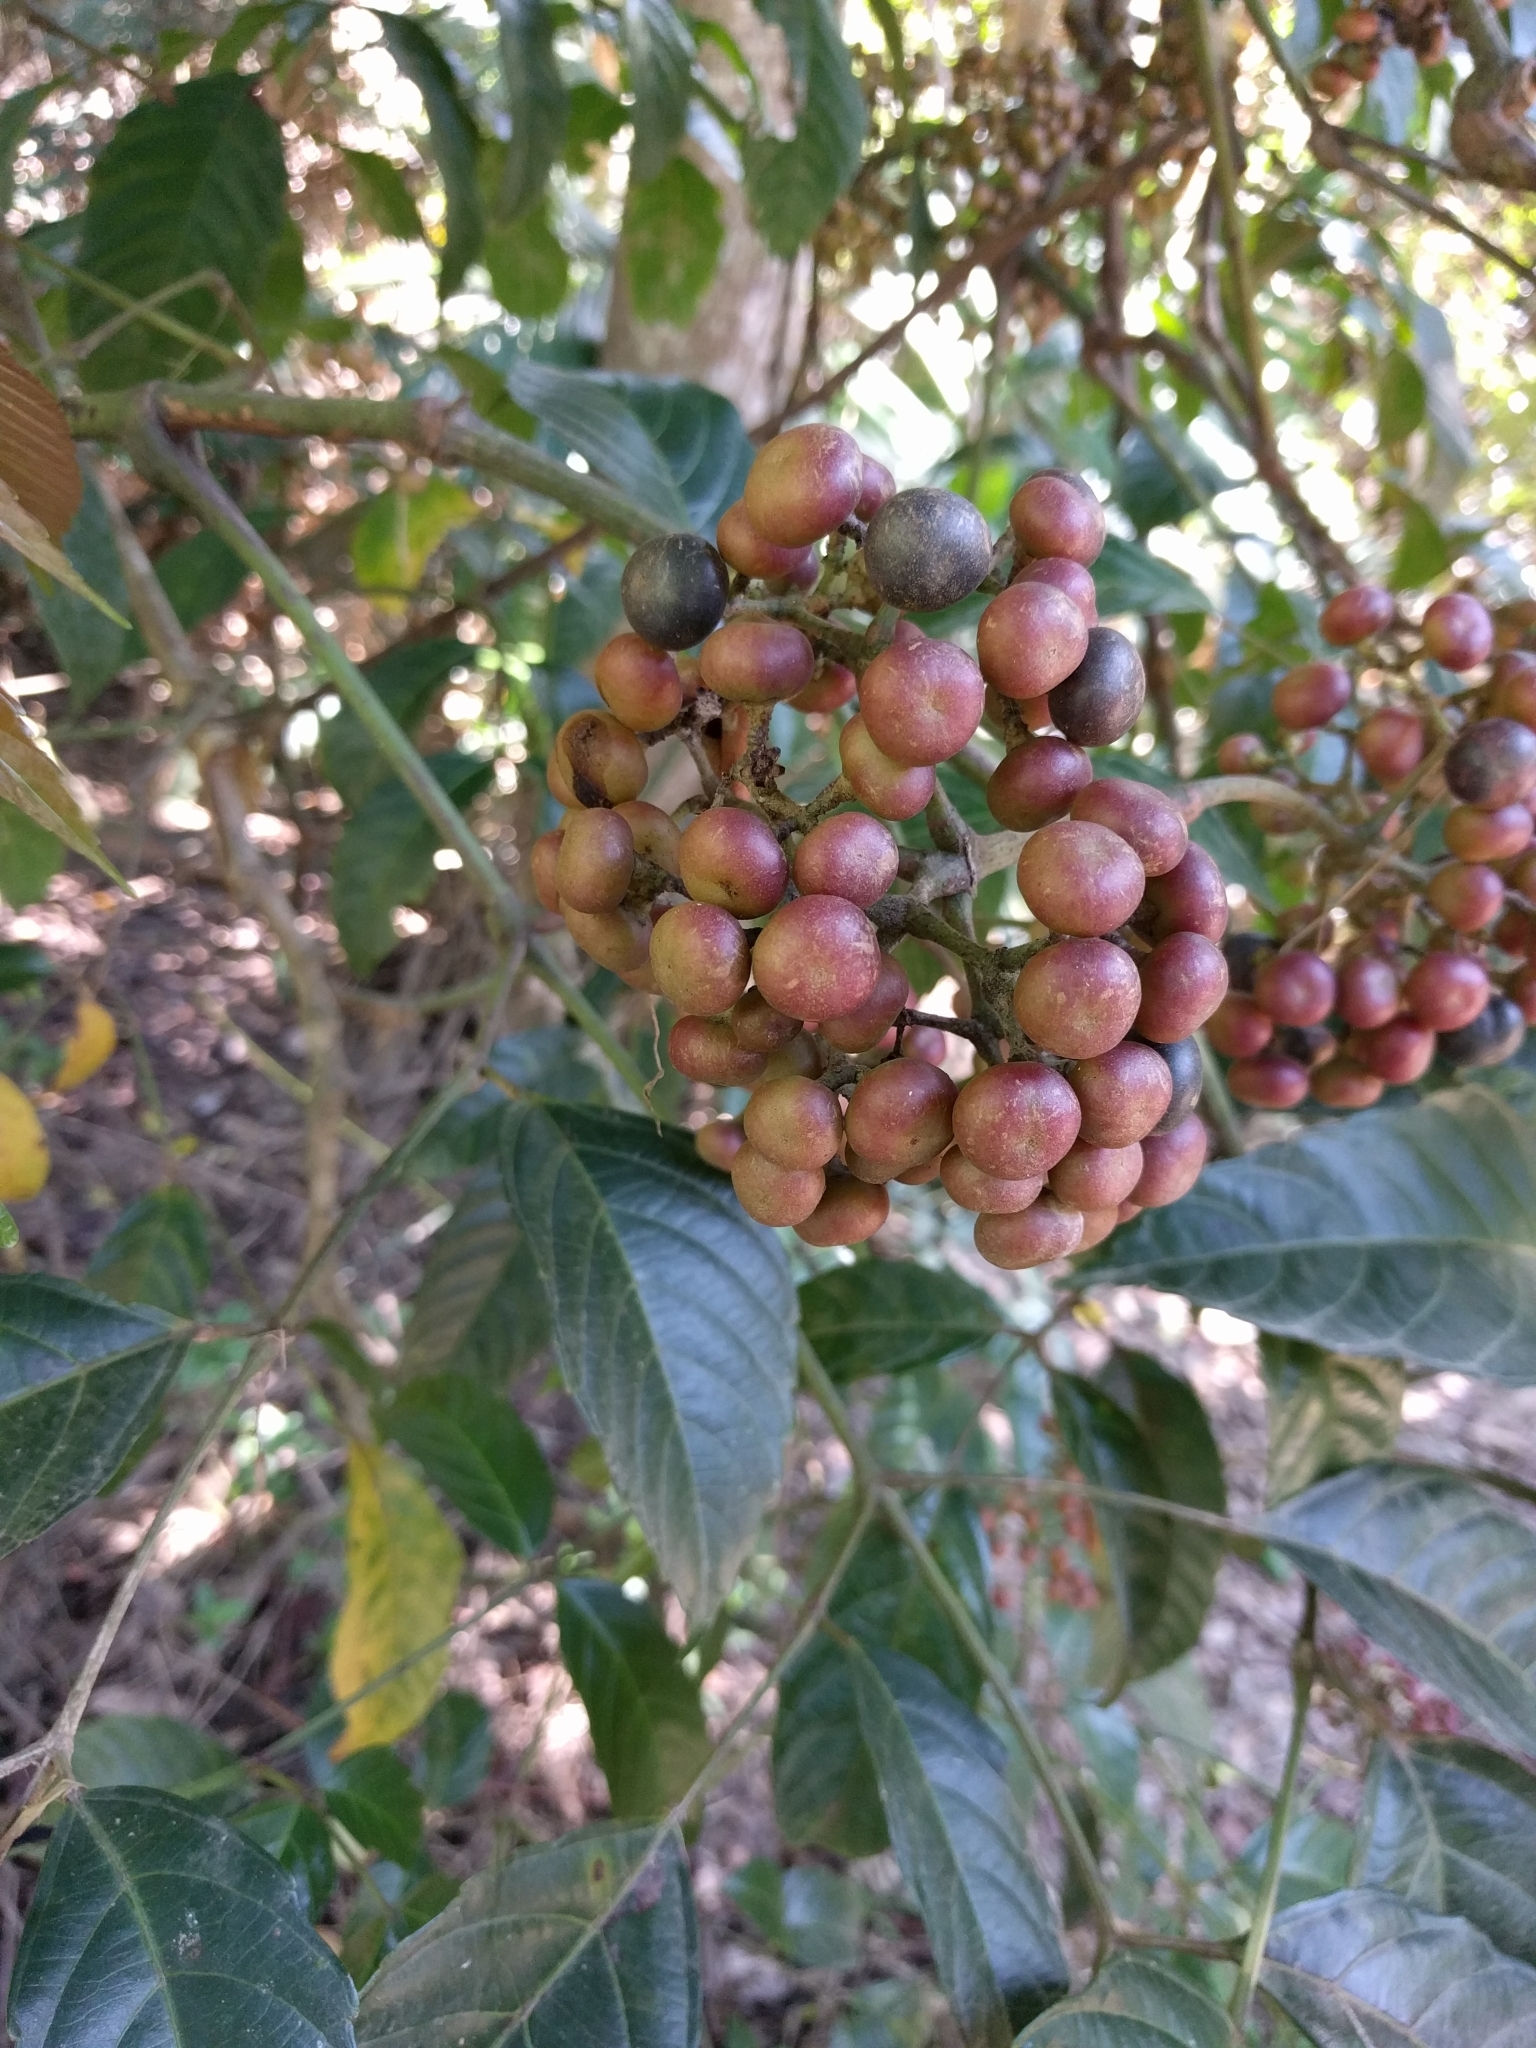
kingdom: Plantae
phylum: Tracheophyta
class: Magnoliopsida
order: Vitales
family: Vitaceae
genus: Leea
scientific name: Leea nova-guineensis
